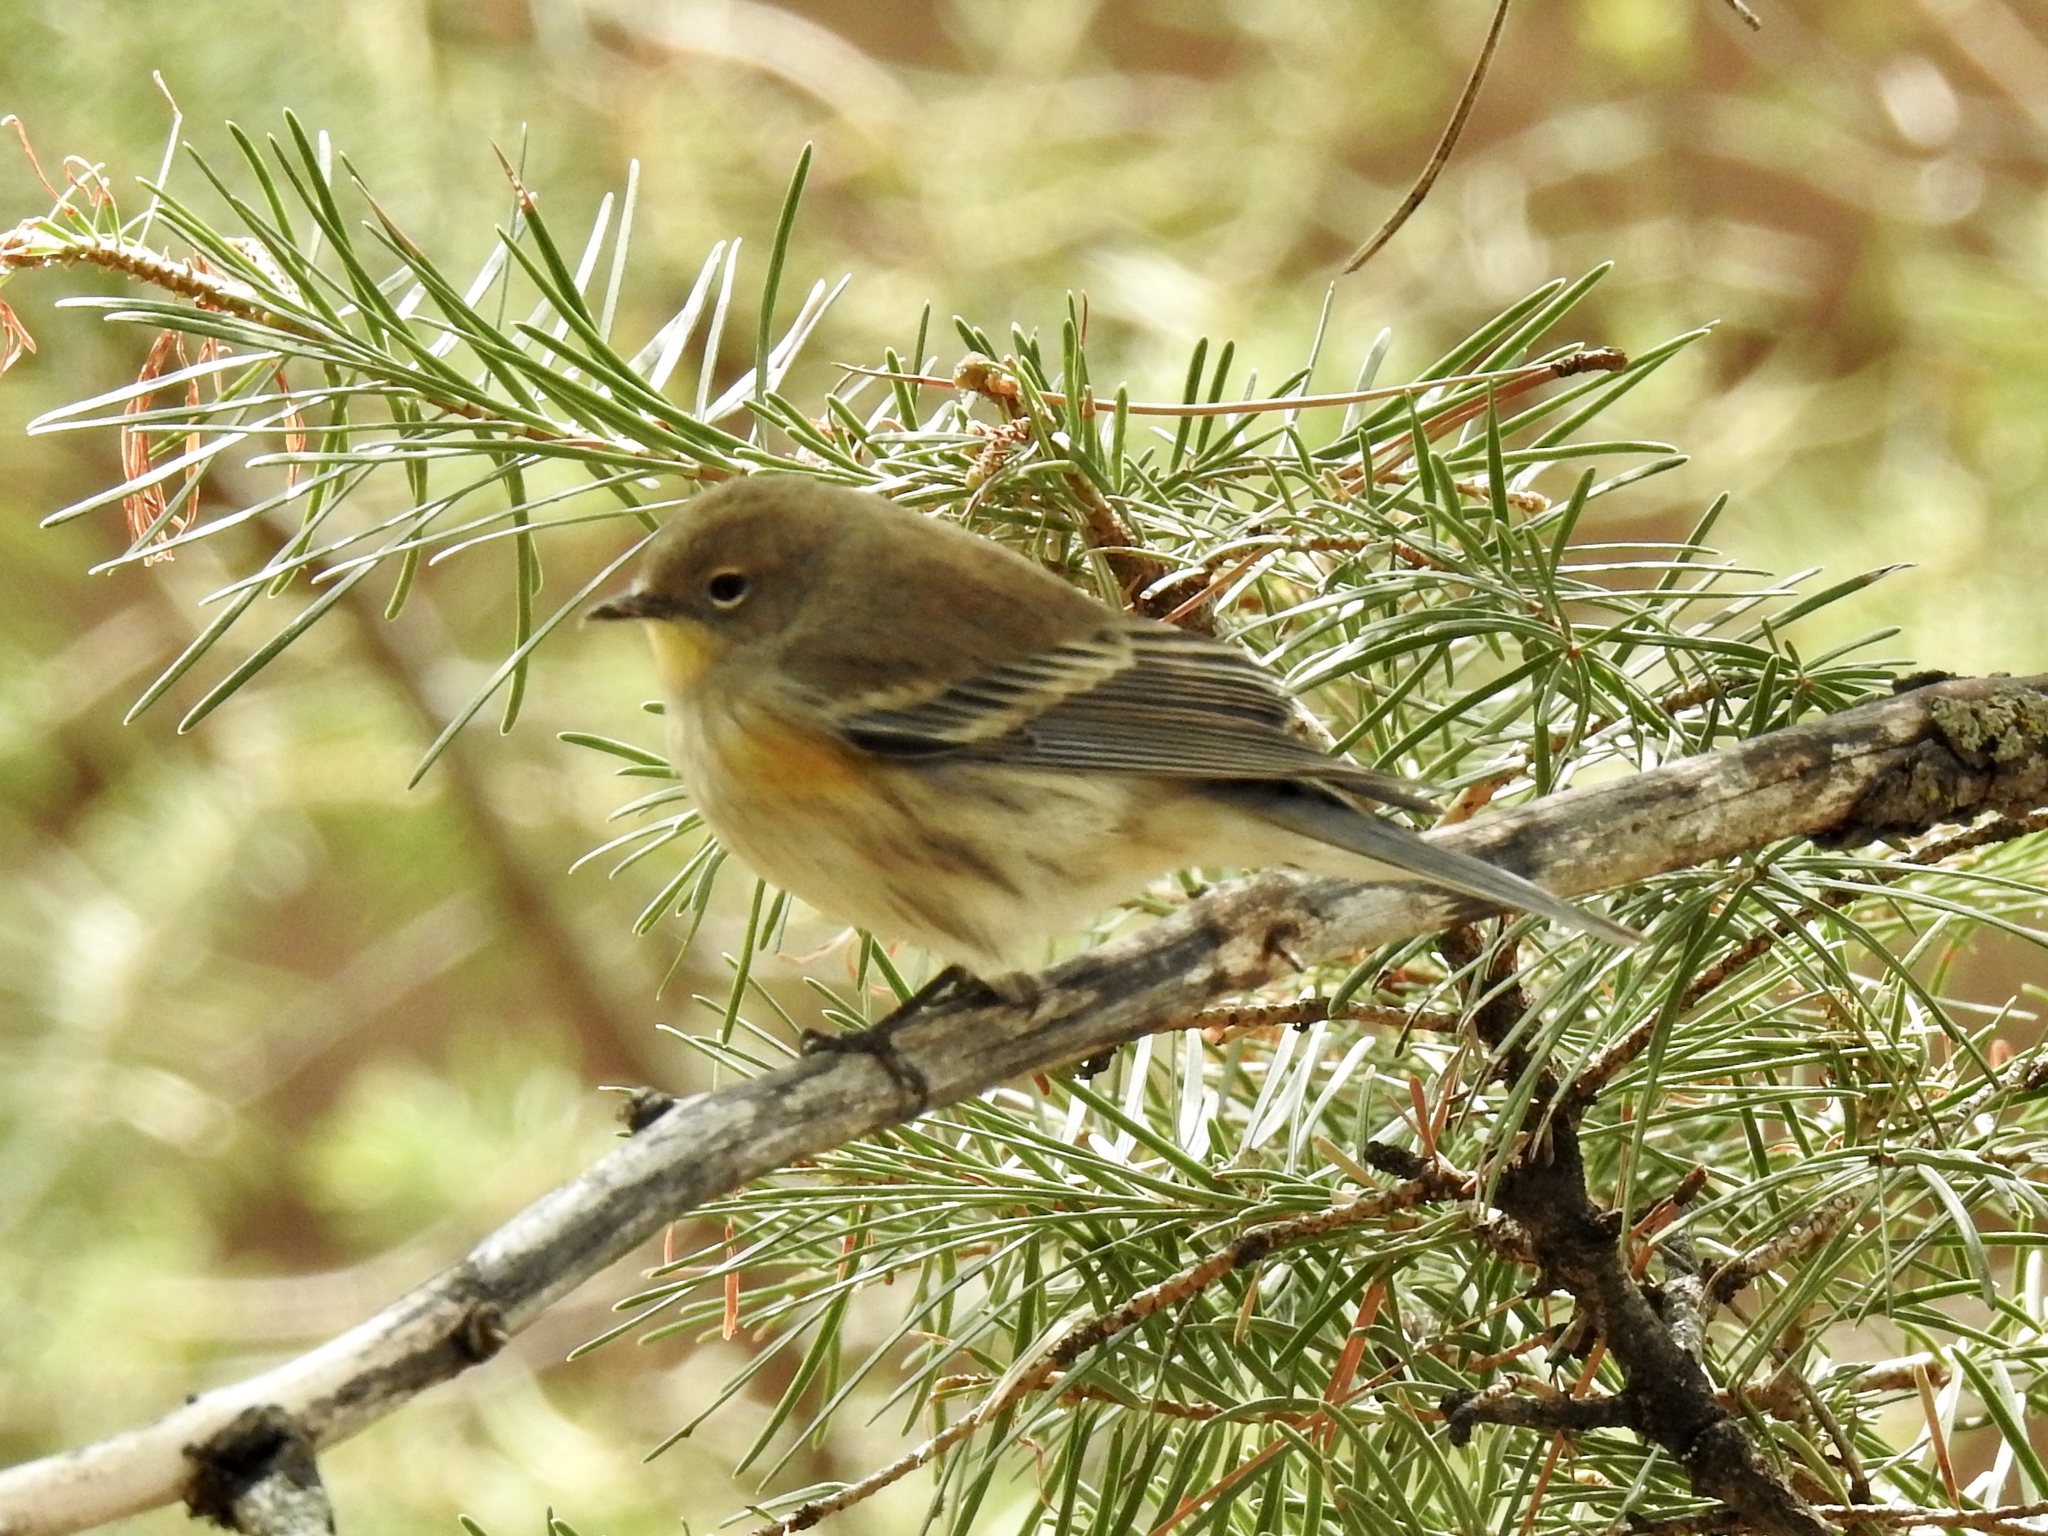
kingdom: Animalia
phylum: Chordata
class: Aves
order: Passeriformes
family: Parulidae
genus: Setophaga
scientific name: Setophaga coronata
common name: Myrtle warbler
